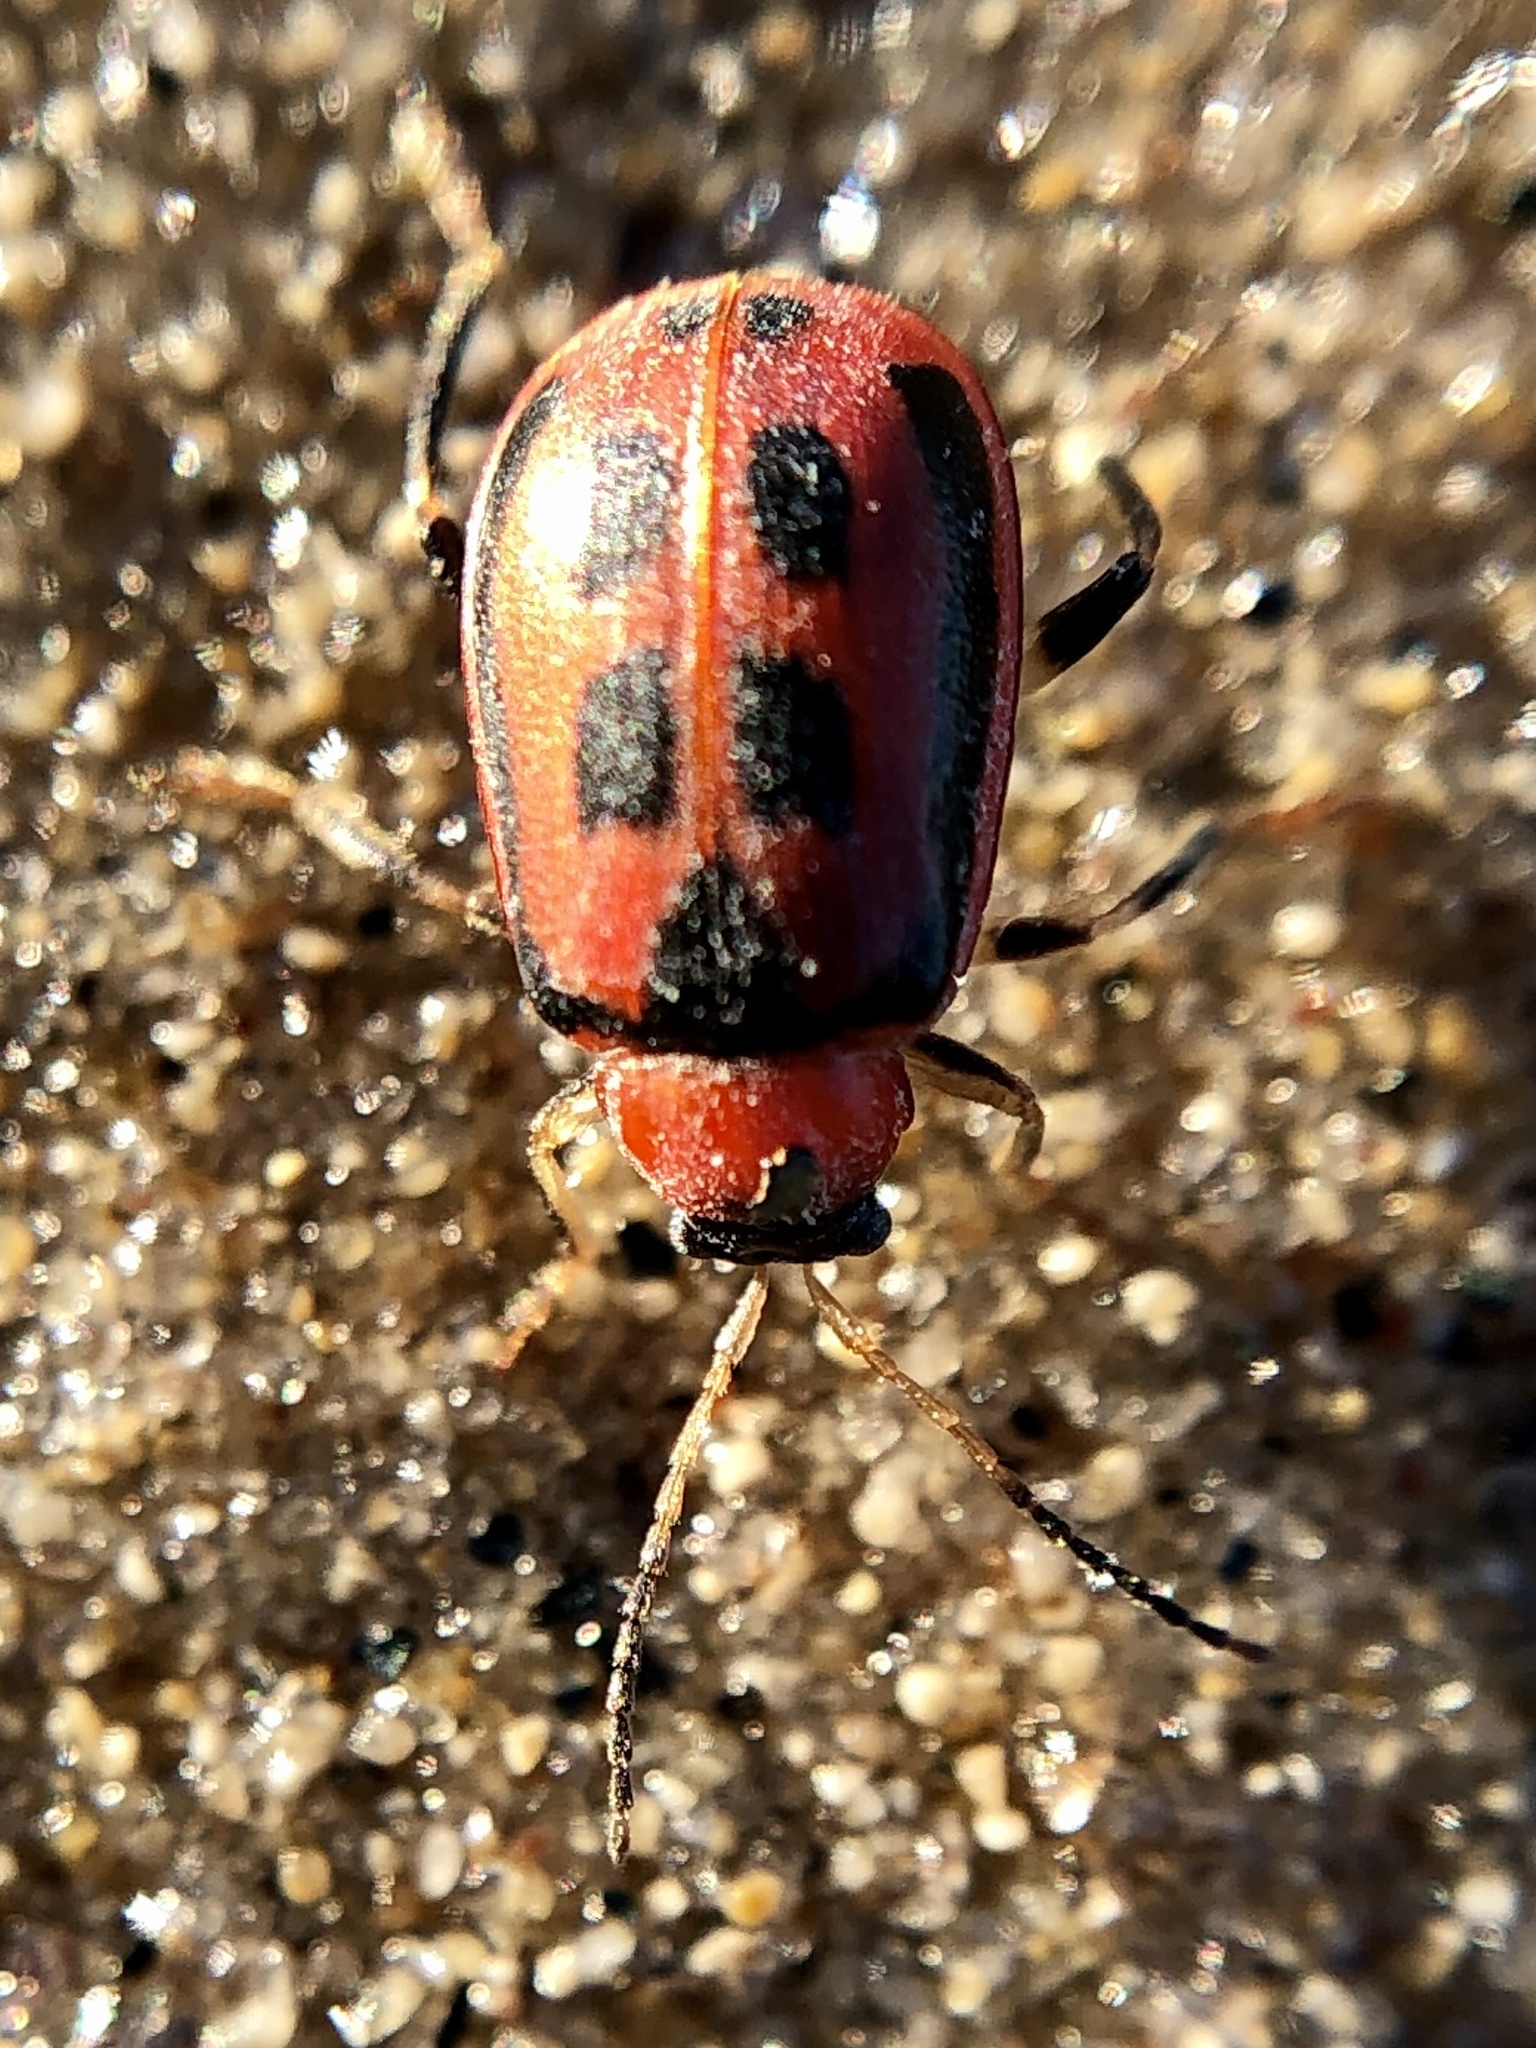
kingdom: Animalia
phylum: Arthropoda
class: Insecta
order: Coleoptera
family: Chrysomelidae
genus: Cerotoma
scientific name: Cerotoma trifurcata
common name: Bean leaf beetle
